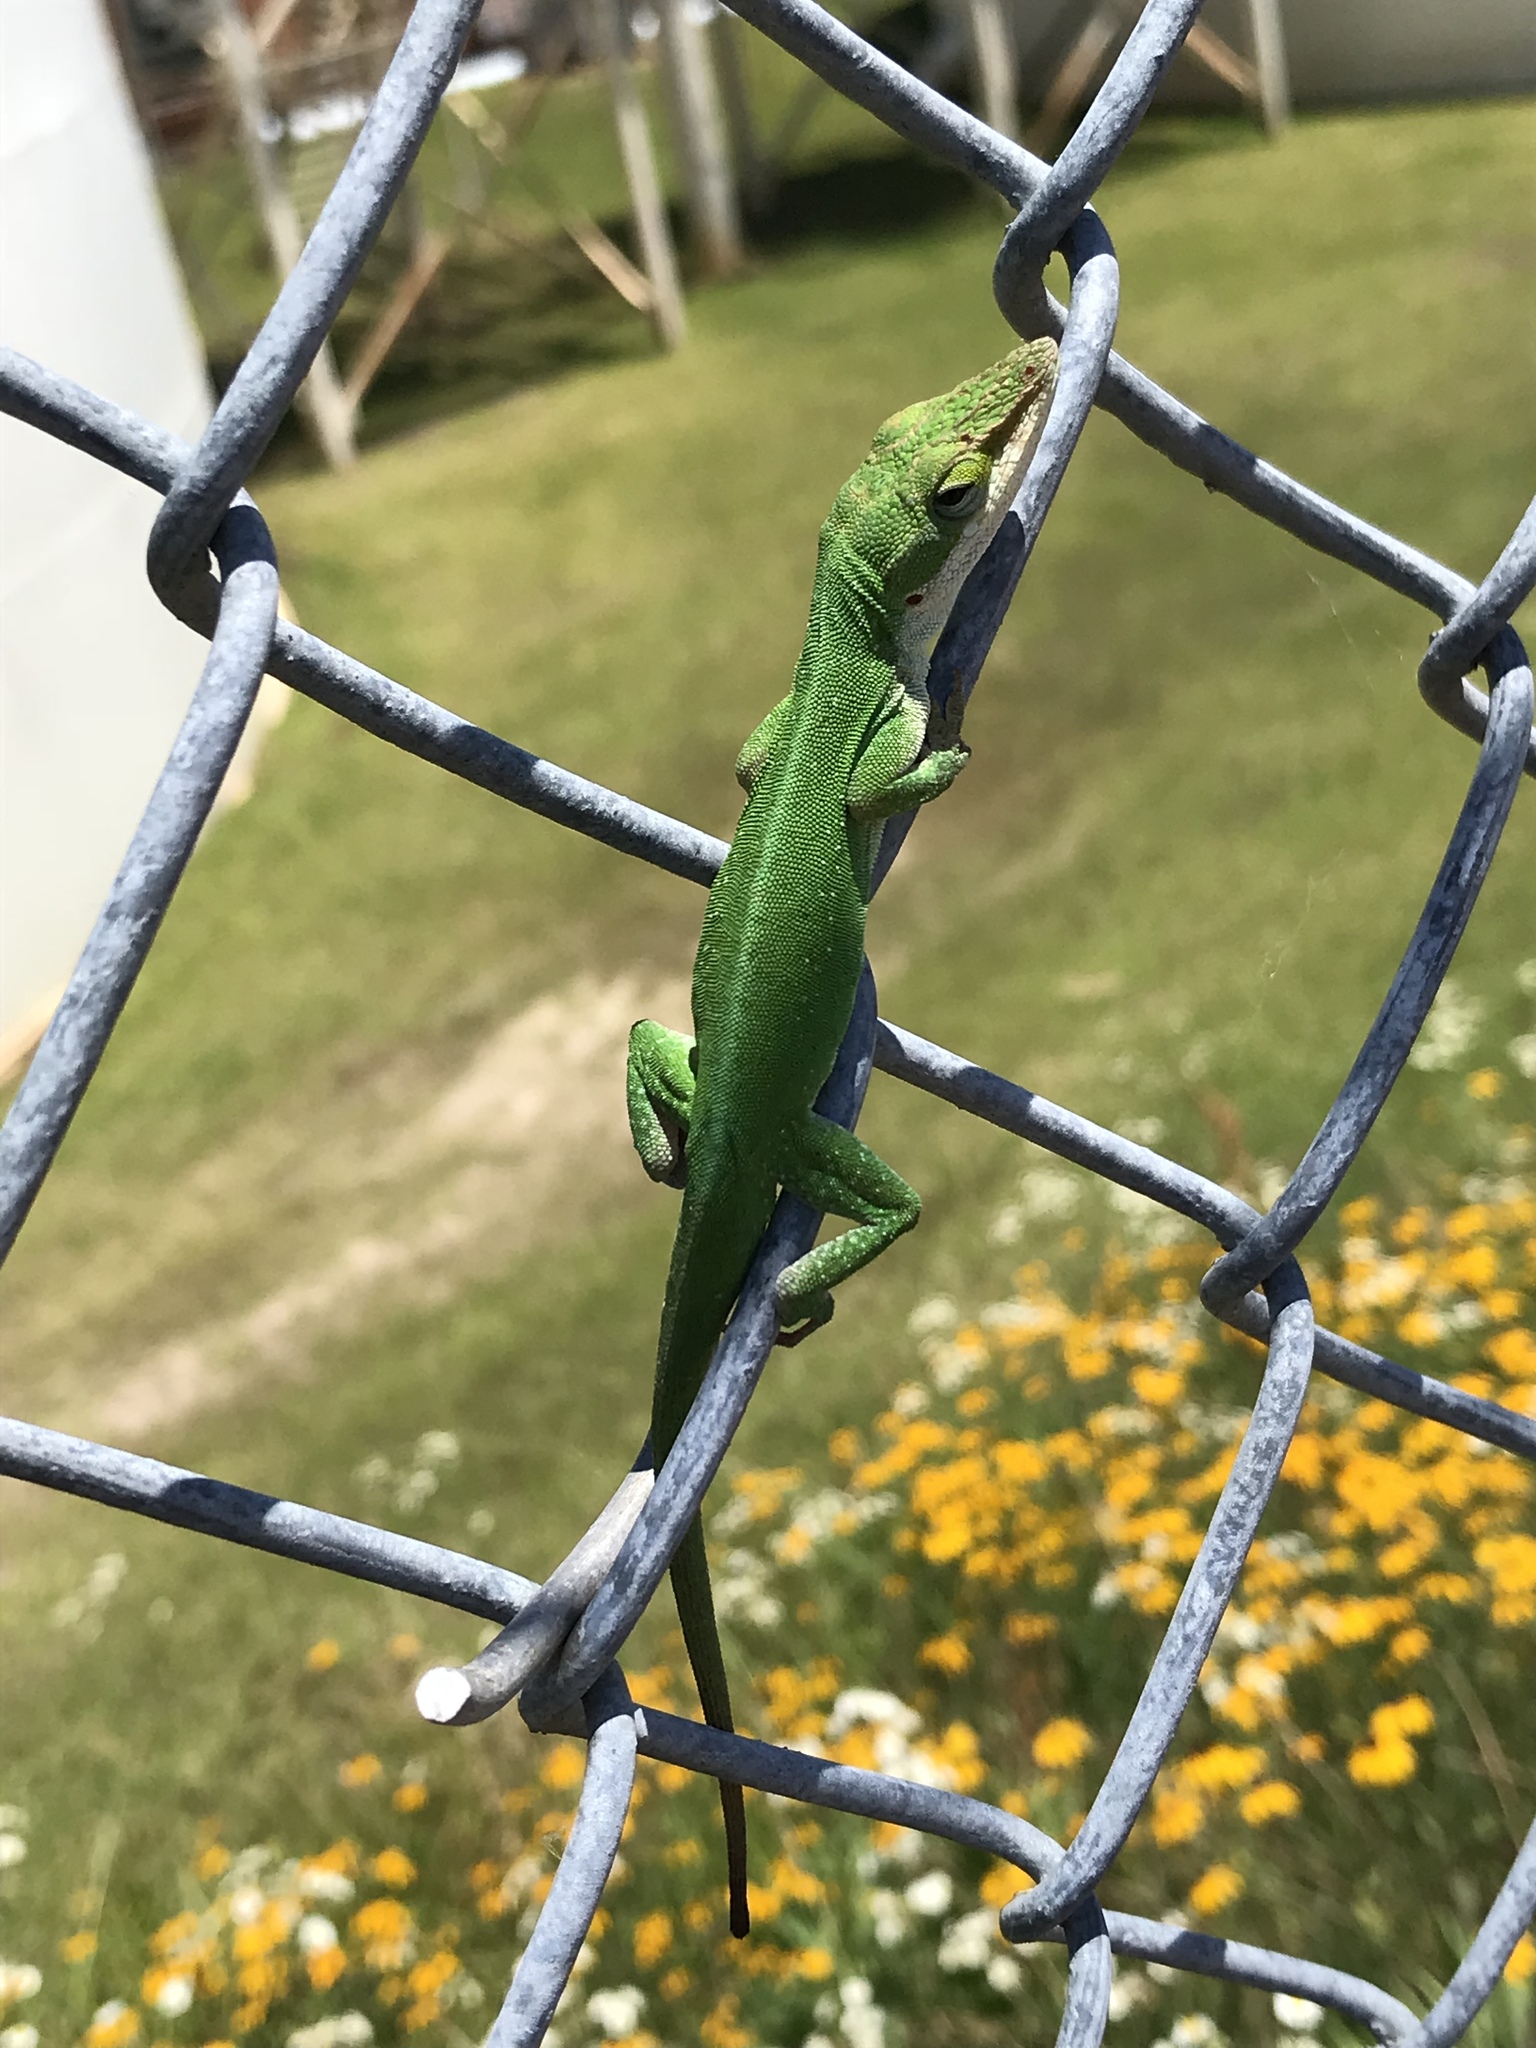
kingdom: Animalia
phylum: Chordata
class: Squamata
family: Dactyloidae
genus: Anolis
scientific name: Anolis carolinensis
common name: Green anole
